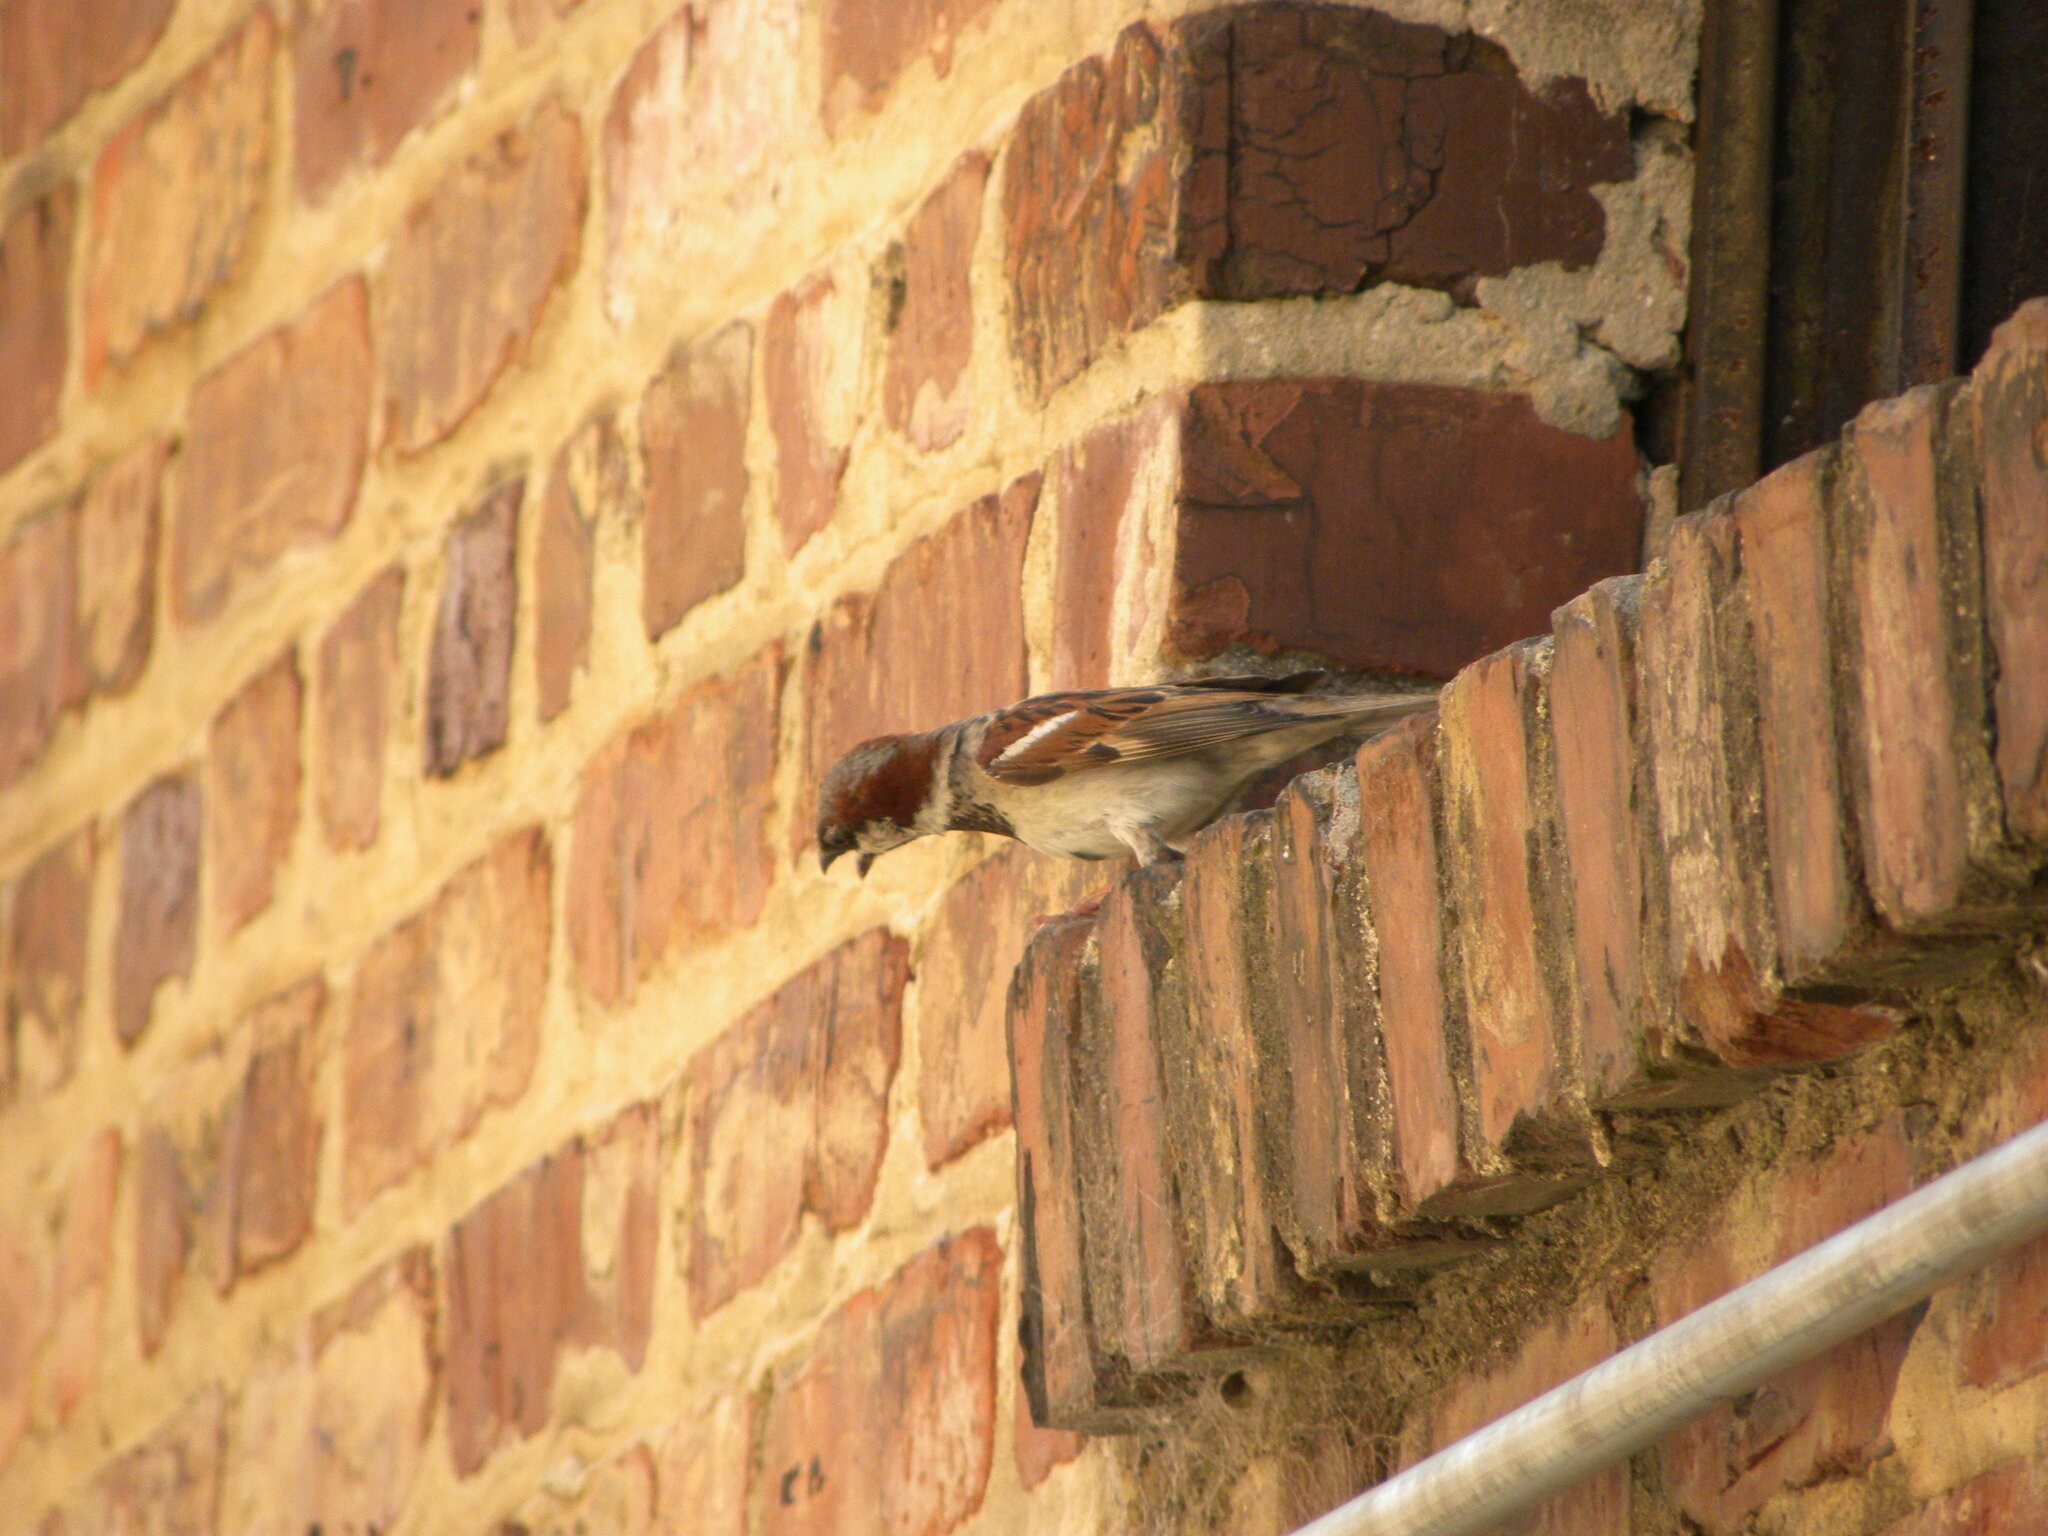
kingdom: Animalia
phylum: Chordata
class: Aves
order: Passeriformes
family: Passeridae
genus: Passer
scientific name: Passer domesticus
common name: House sparrow
